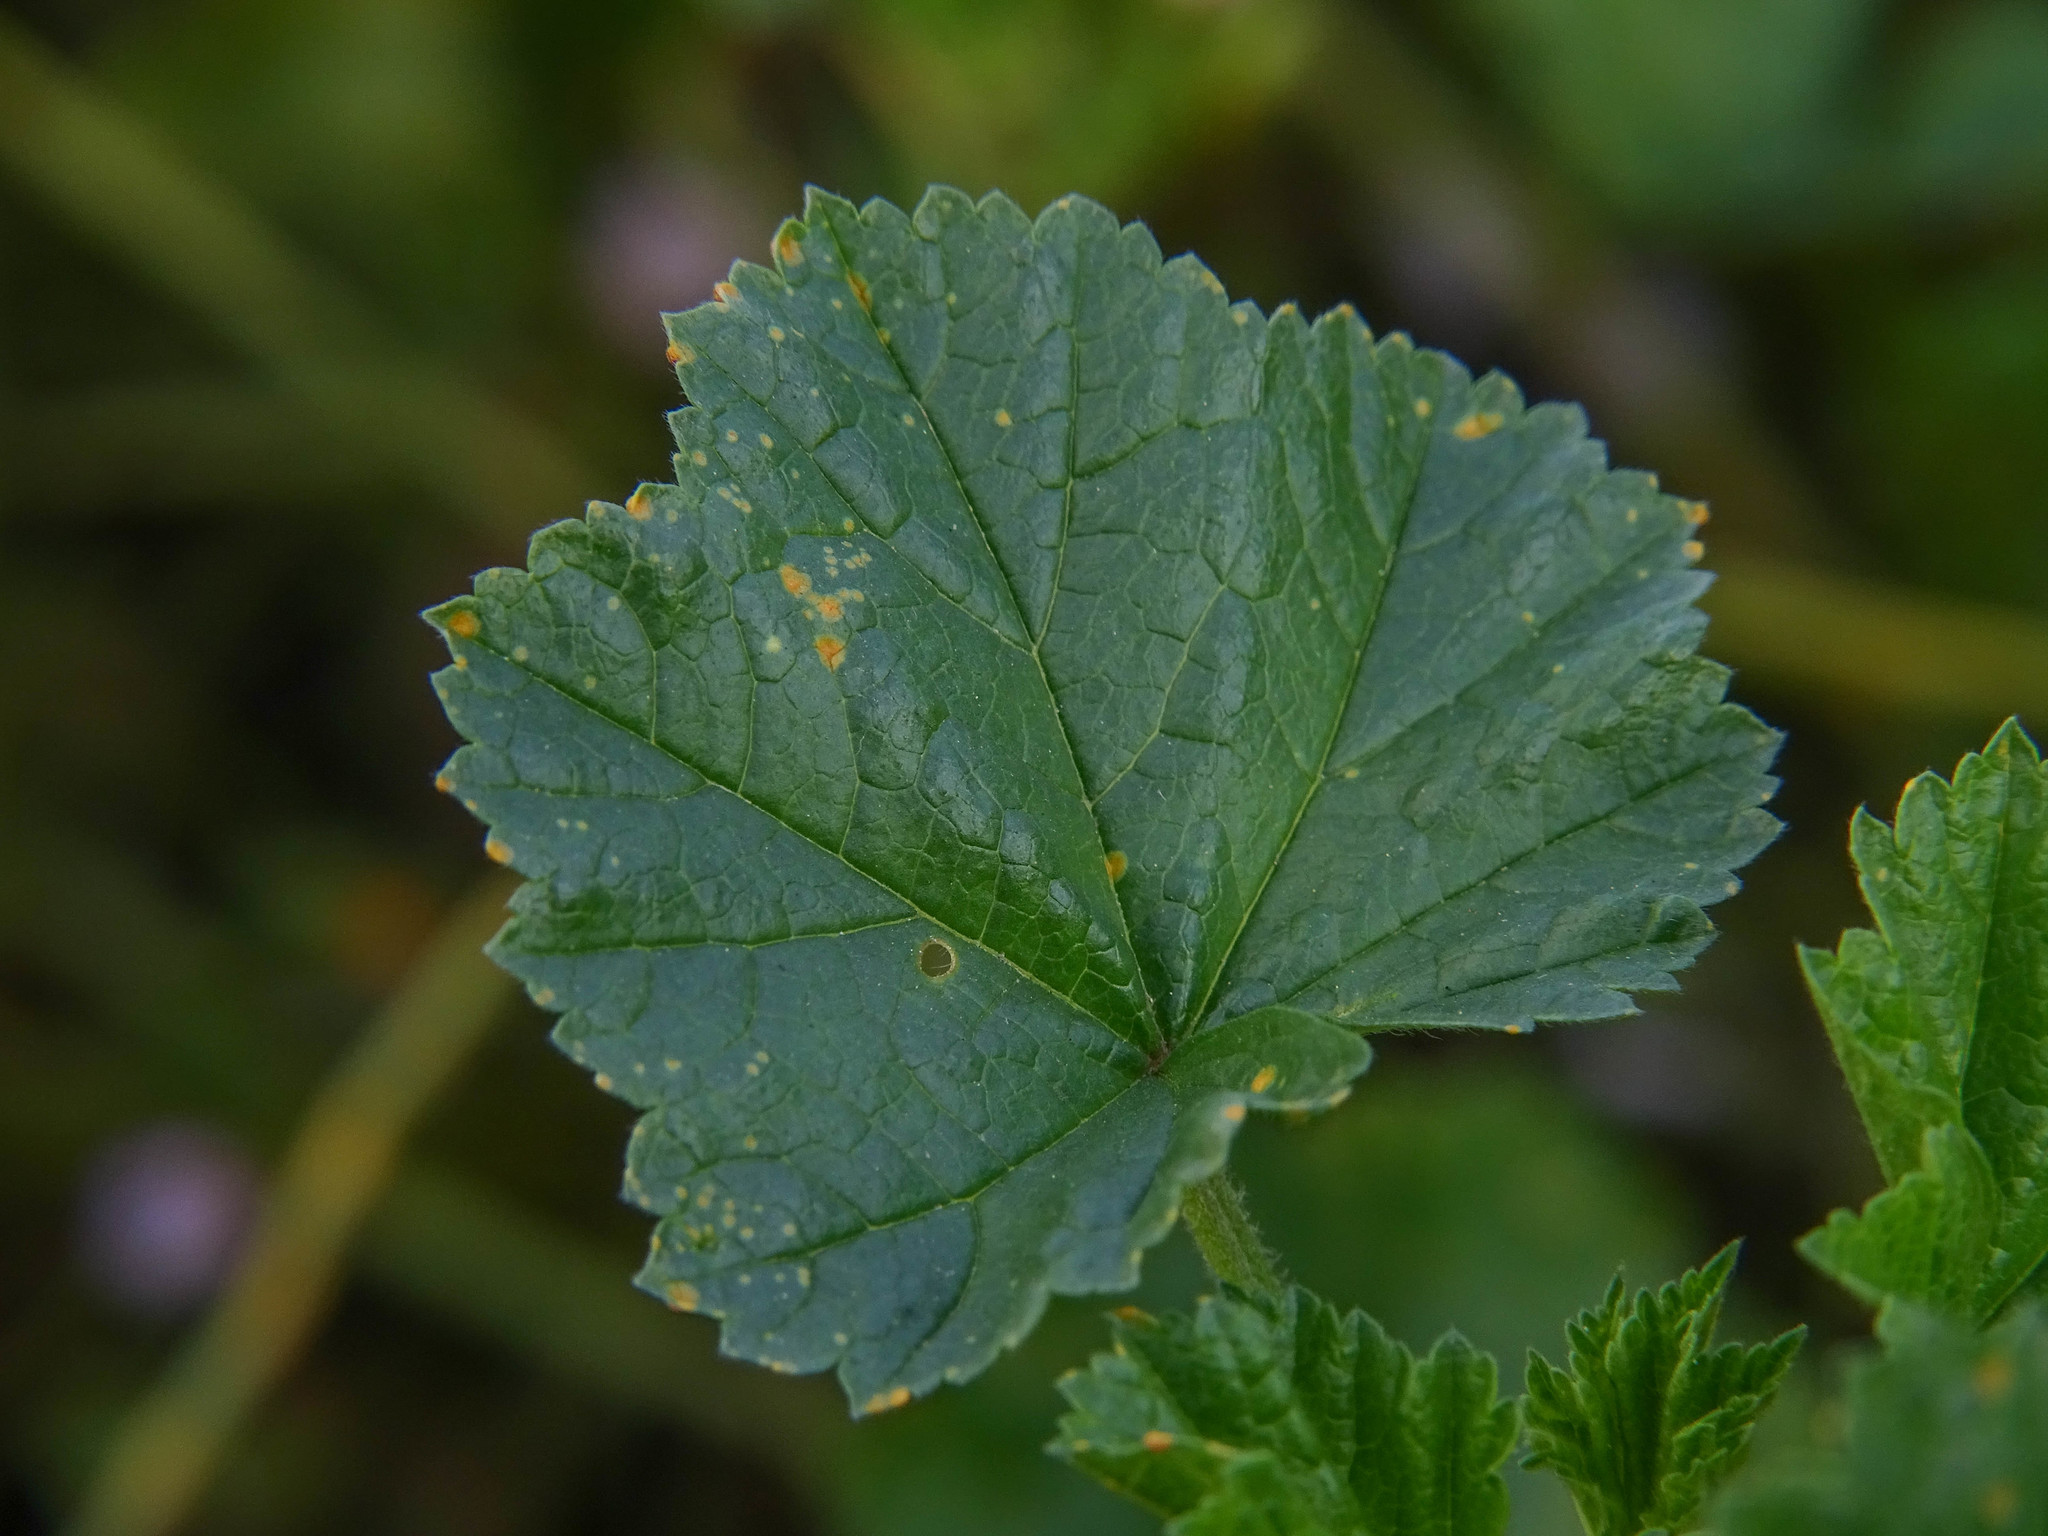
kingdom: Plantae
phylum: Tracheophyta
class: Magnoliopsida
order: Malvales
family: Malvaceae
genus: Malva
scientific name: Malva neglecta
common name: Common mallow
